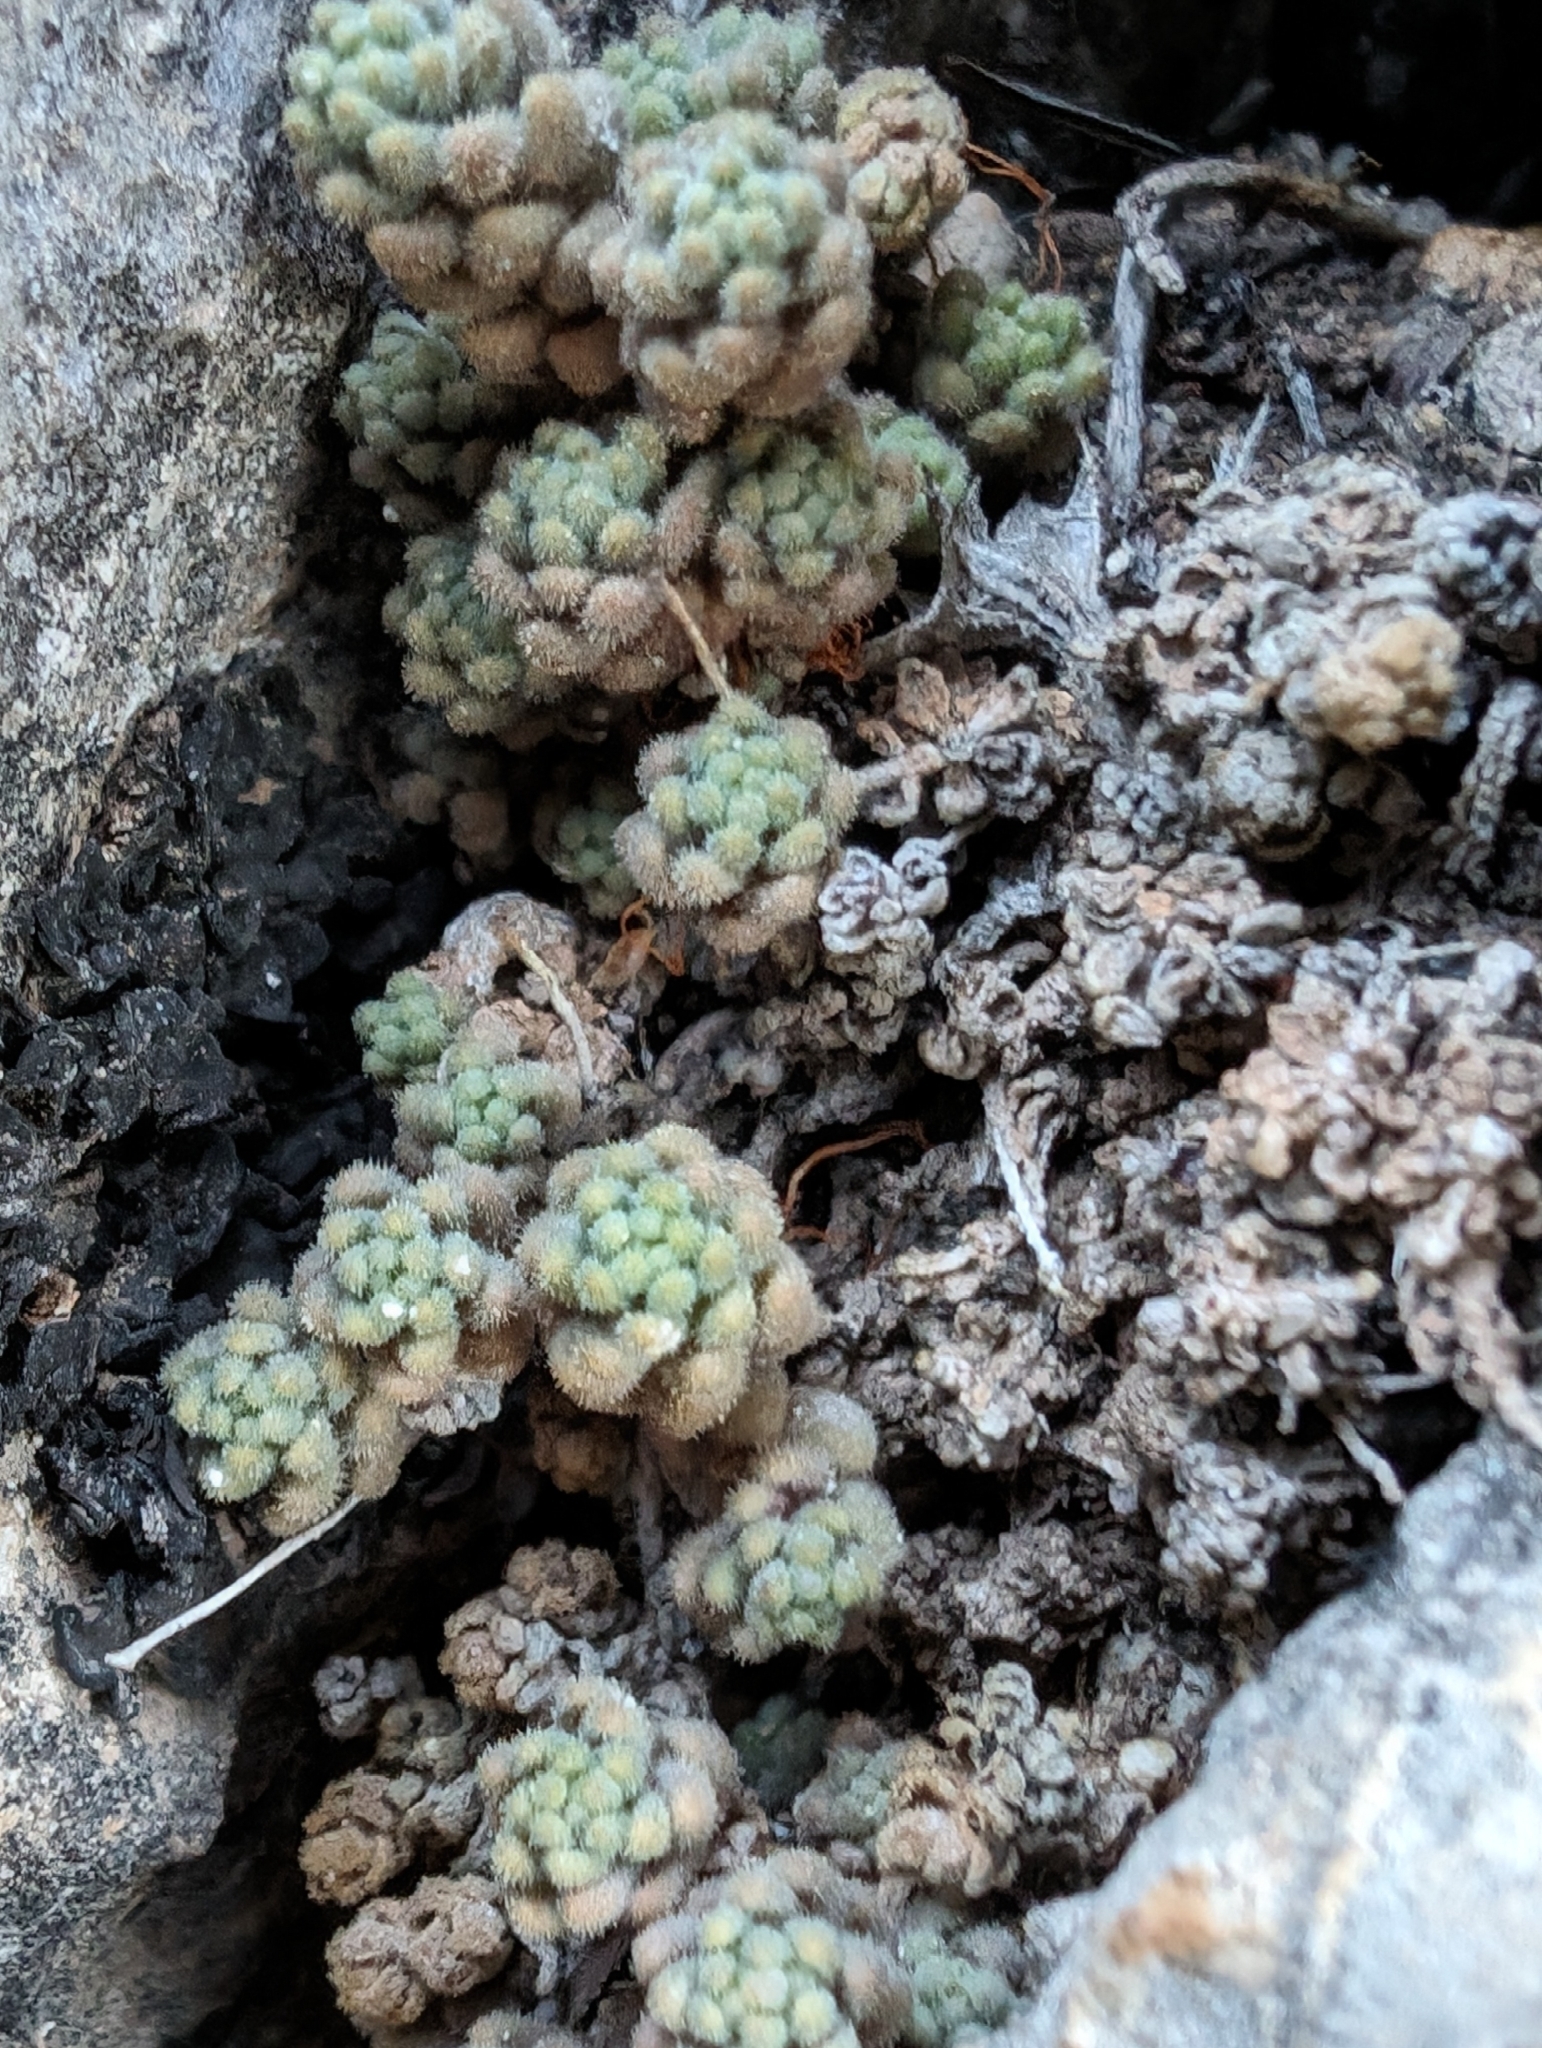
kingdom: Plantae
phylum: Tracheophyta
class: Magnoliopsida
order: Saxifragales
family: Crassulaceae
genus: Sedum
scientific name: Sedum dasyphyllum
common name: Thick-leaf stonecrop
